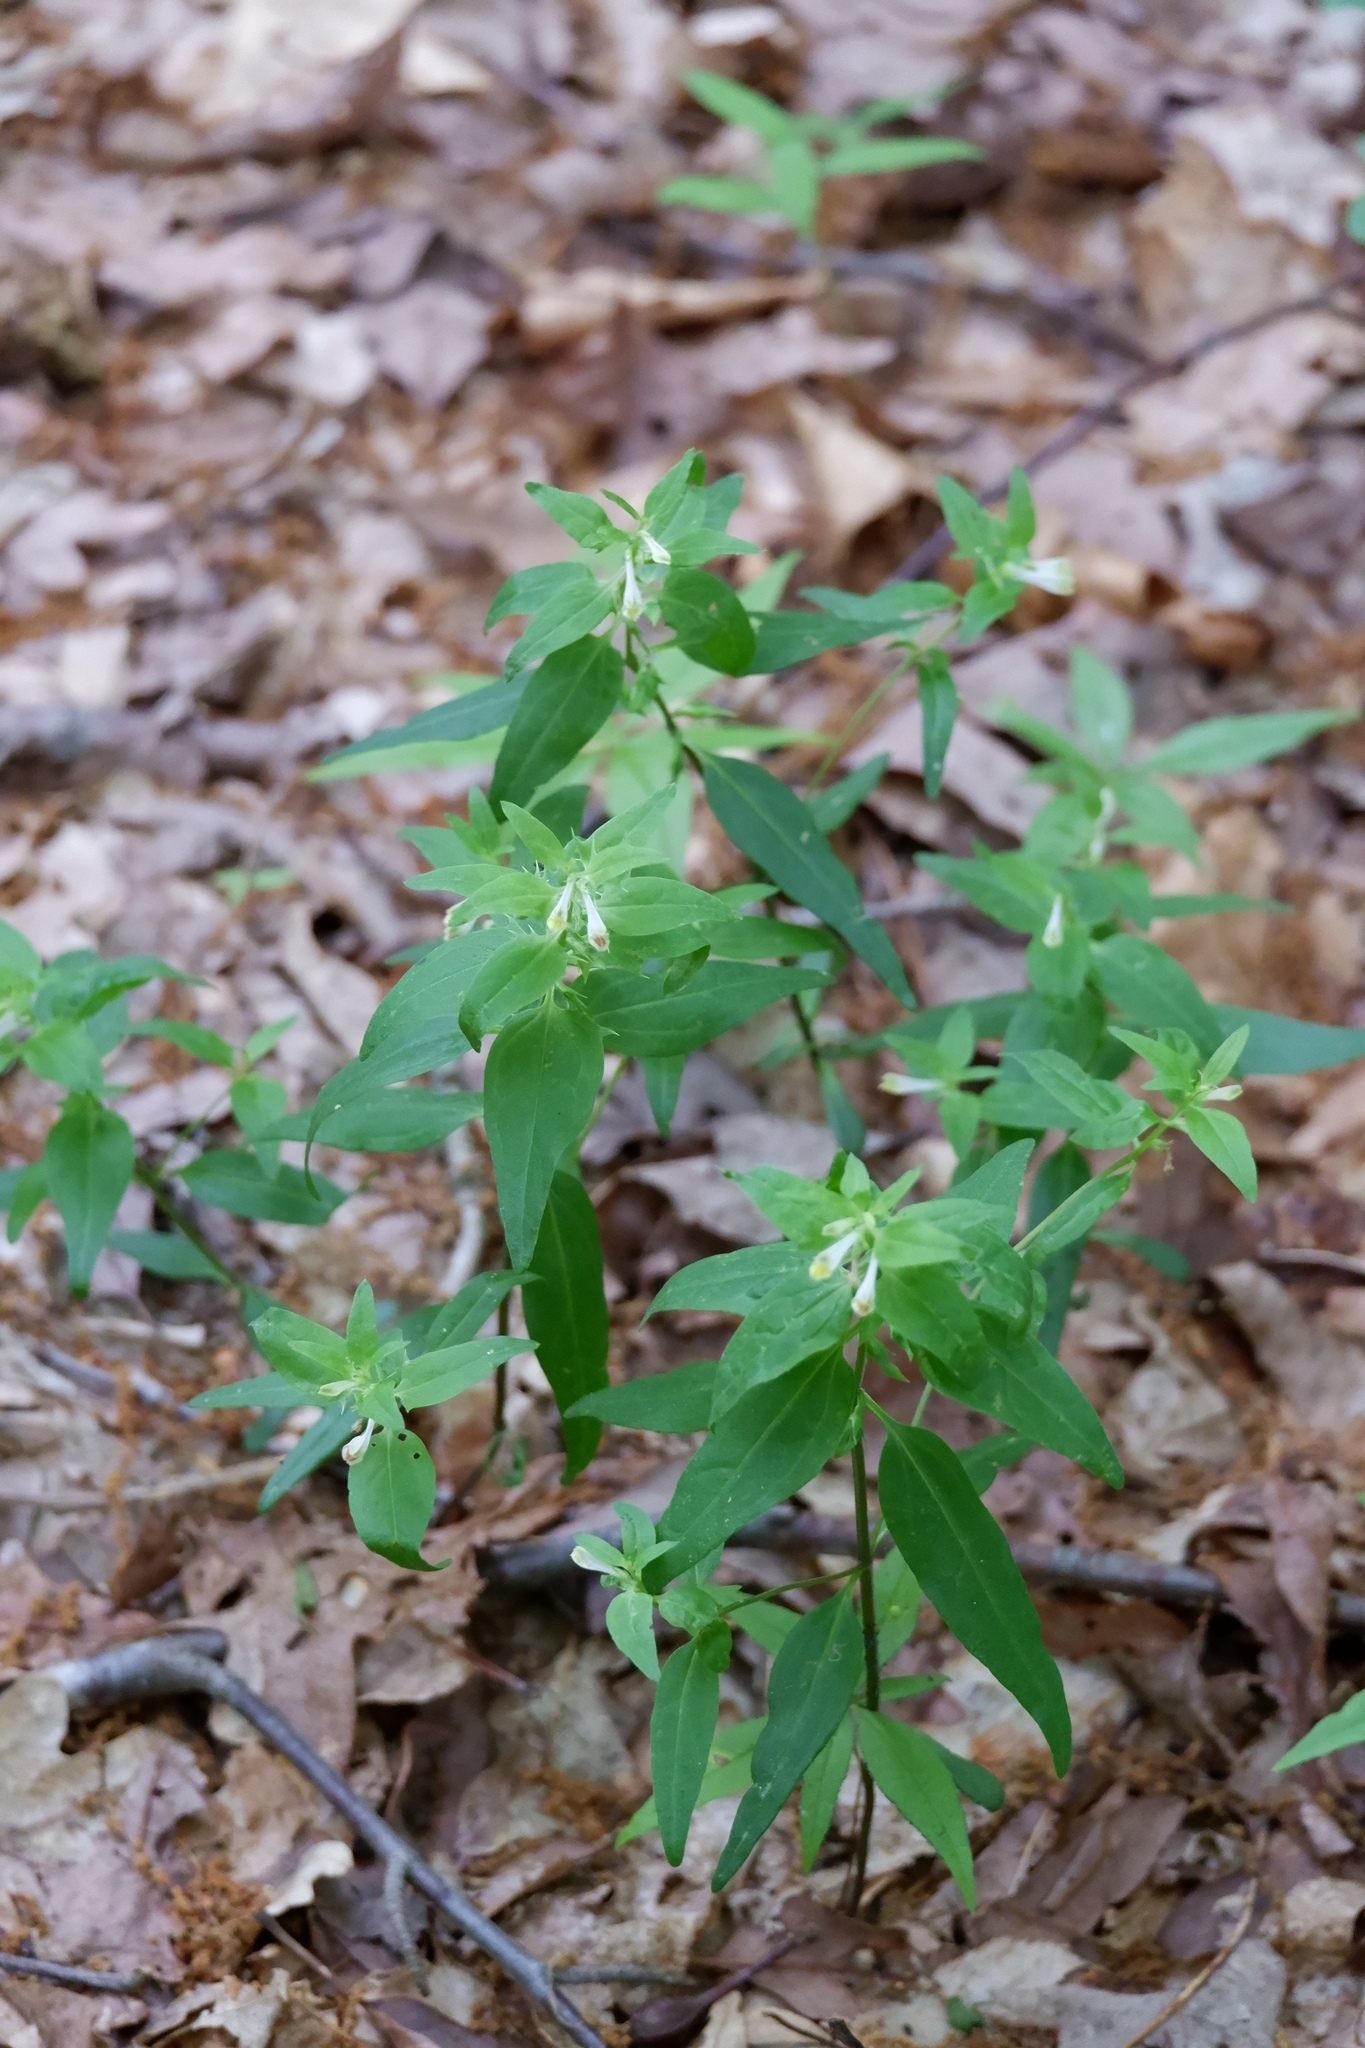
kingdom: Plantae
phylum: Tracheophyta
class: Magnoliopsida
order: Lamiales
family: Orobanchaceae
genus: Melampyrum
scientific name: Melampyrum lineare
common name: American cow-wheat
